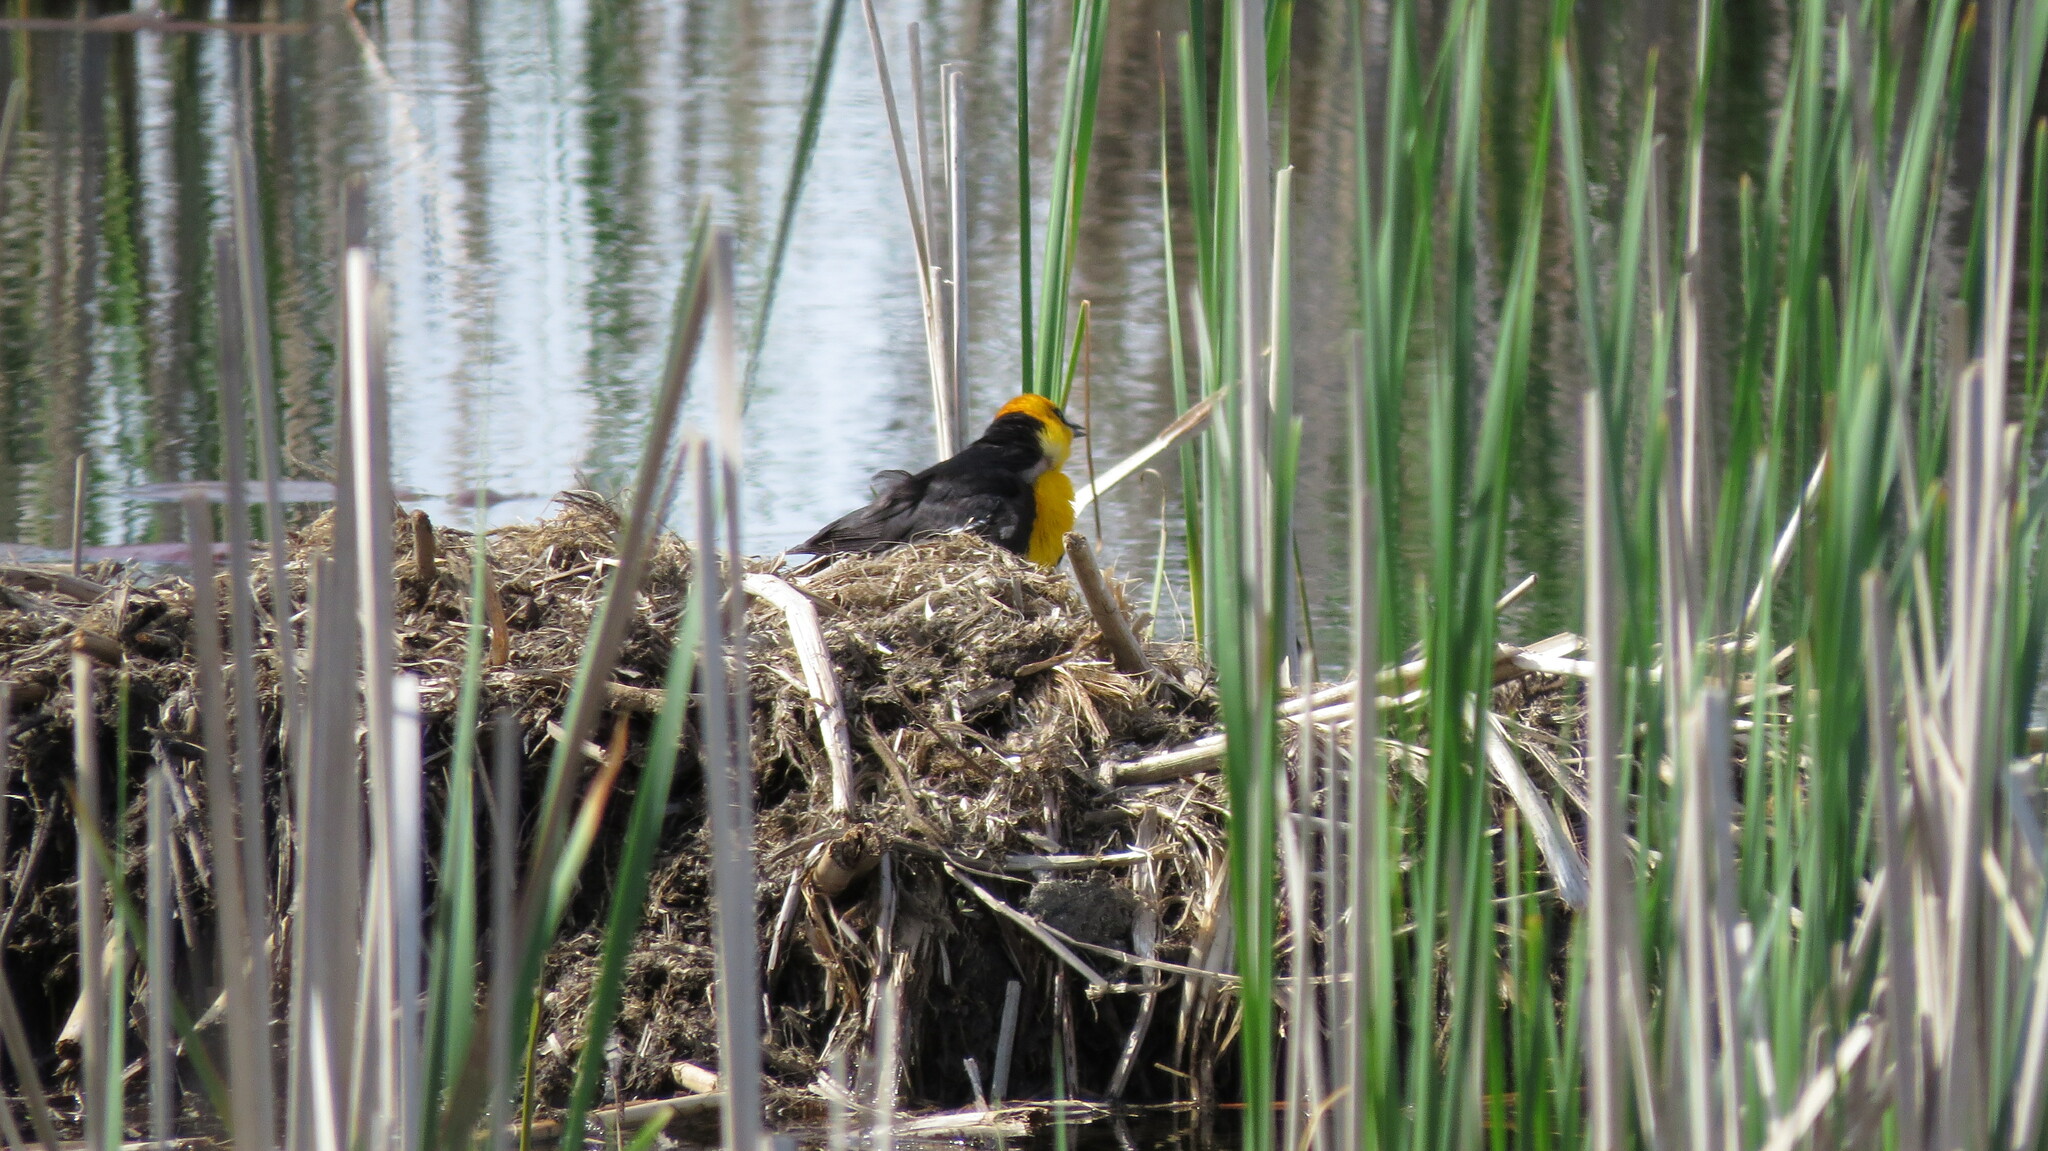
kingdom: Animalia
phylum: Chordata
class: Aves
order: Passeriformes
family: Icteridae
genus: Xanthocephalus
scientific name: Xanthocephalus xanthocephalus
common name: Yellow-headed blackbird
